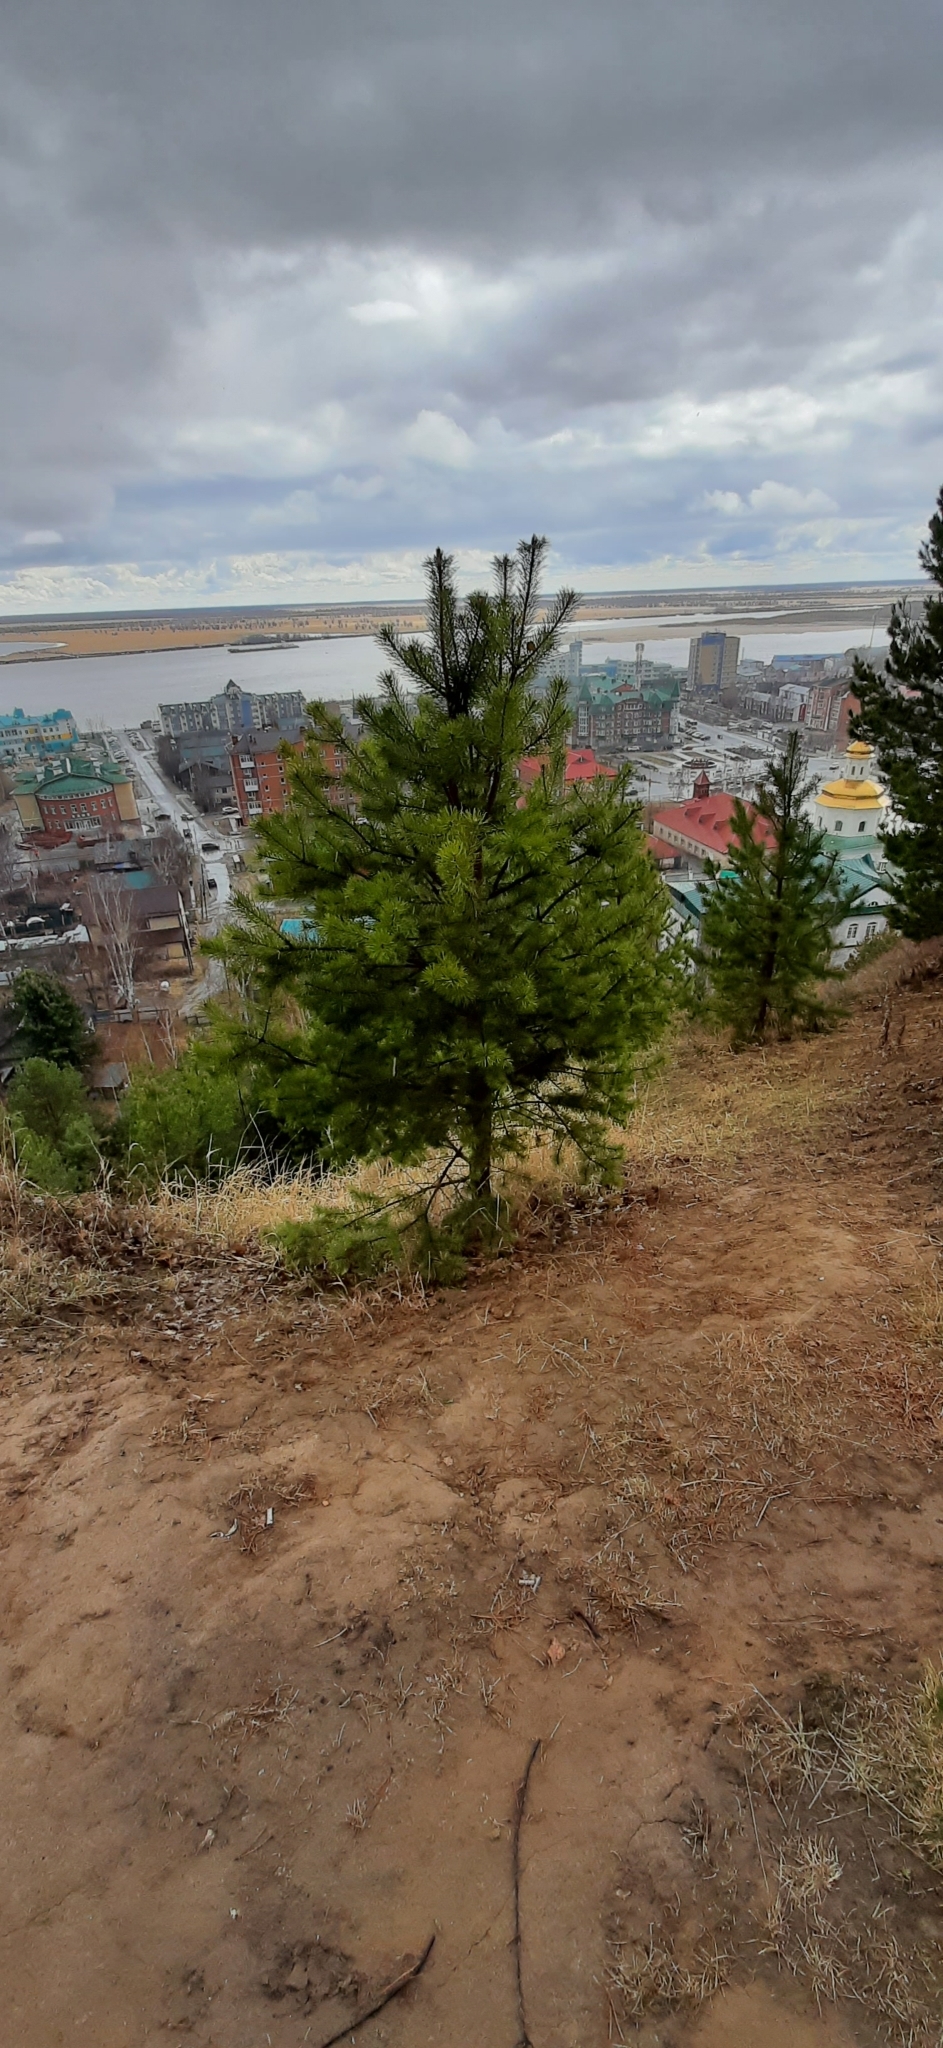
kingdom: Plantae
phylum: Tracheophyta
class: Pinopsida
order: Pinales
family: Pinaceae
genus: Pinus
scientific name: Pinus sylvestris
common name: Scots pine
